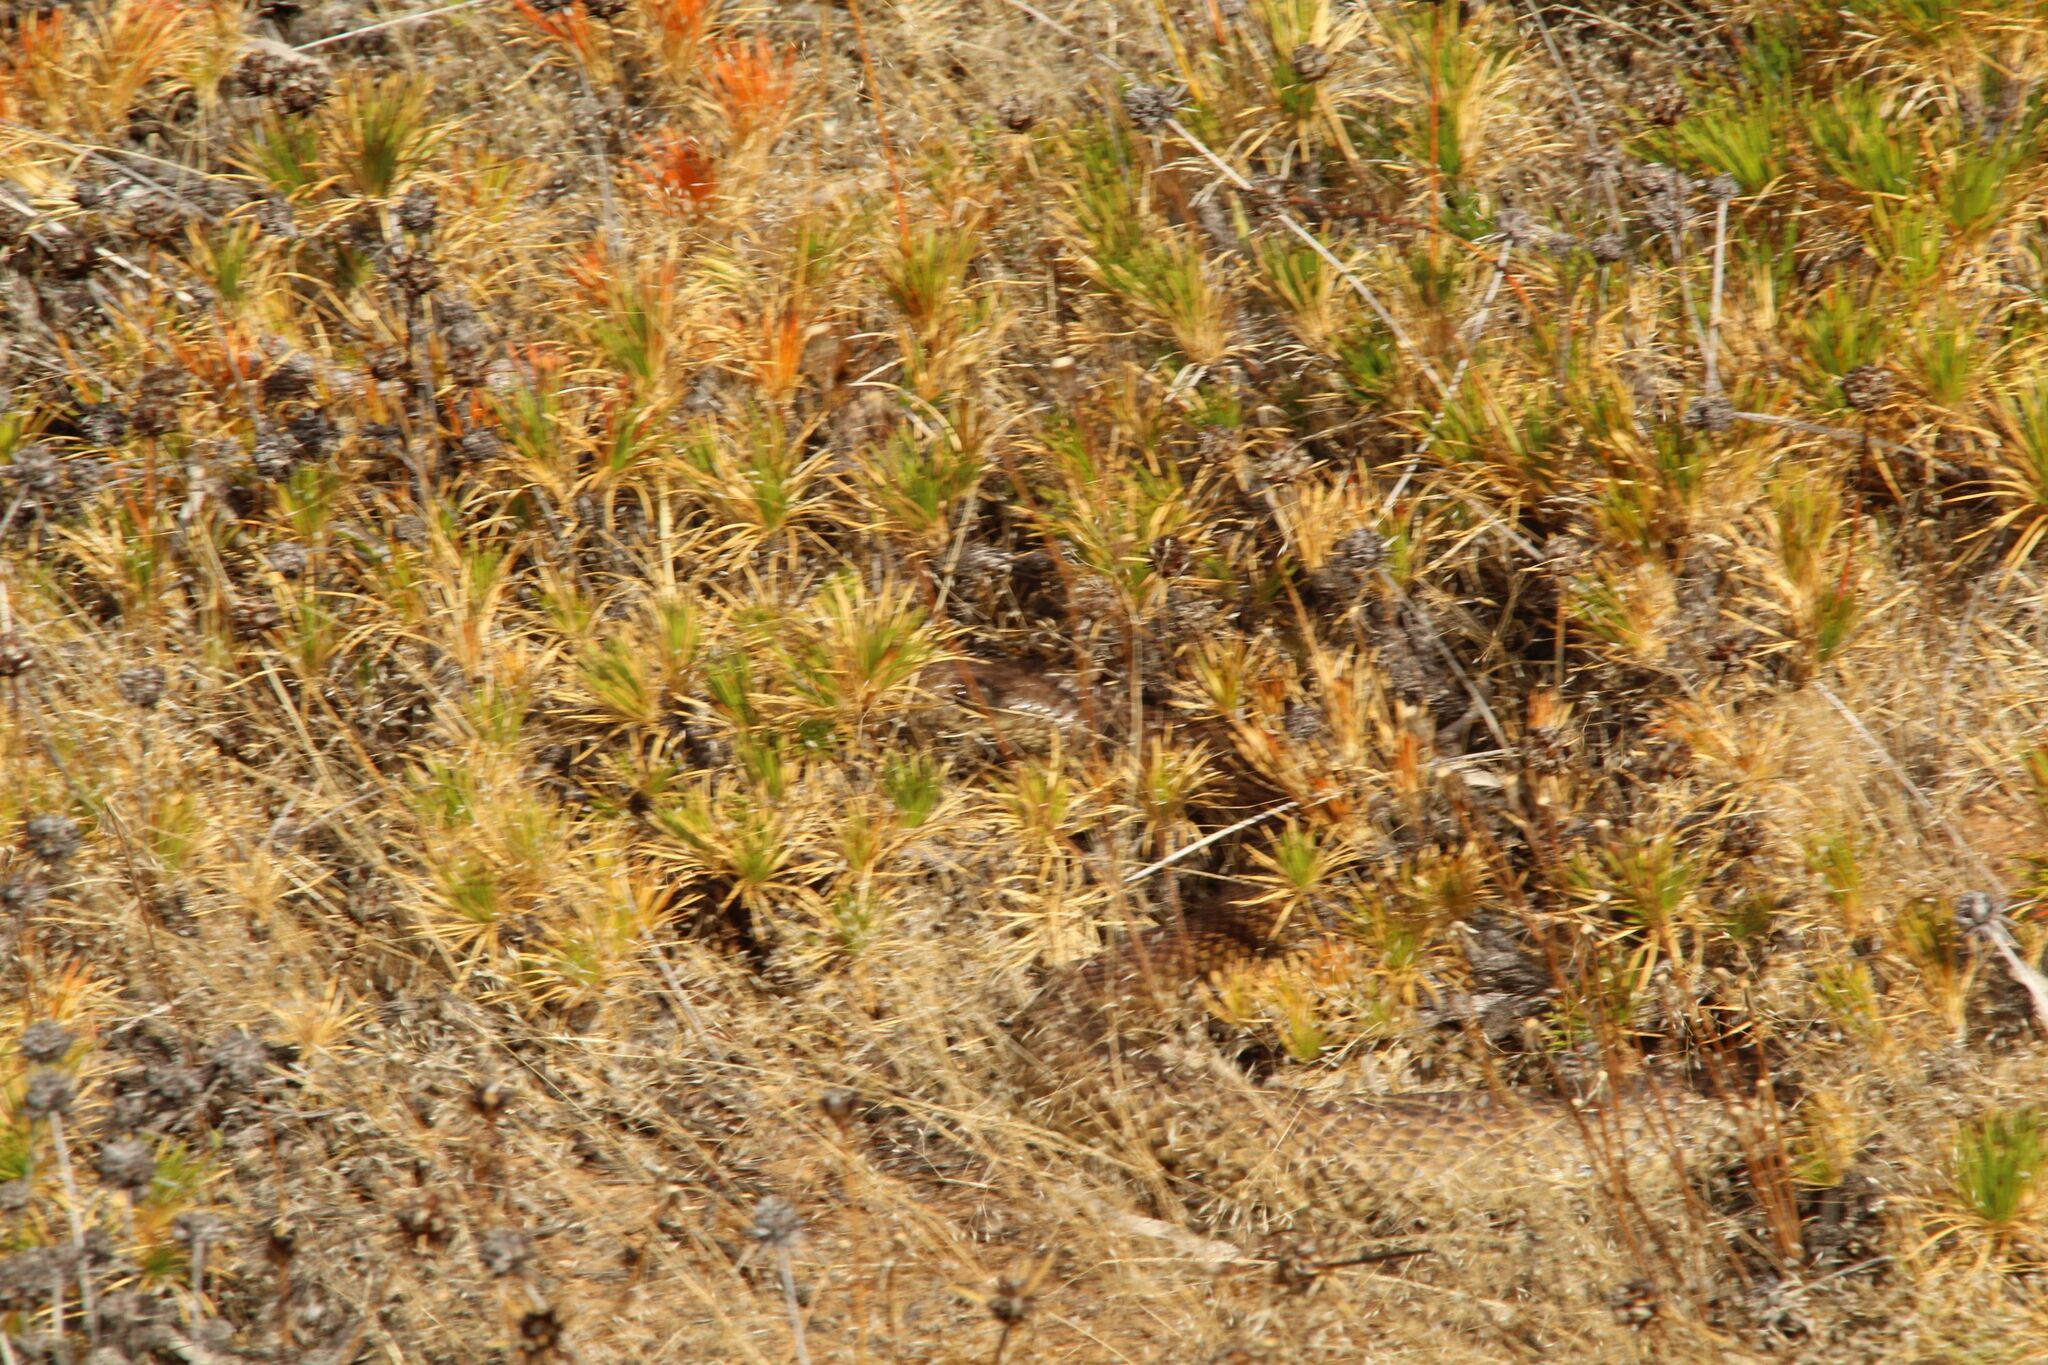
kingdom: Animalia
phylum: Chordata
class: Squamata
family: Elapidae
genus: Pseudechis
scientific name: Pseudechis australis
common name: King brown snake
